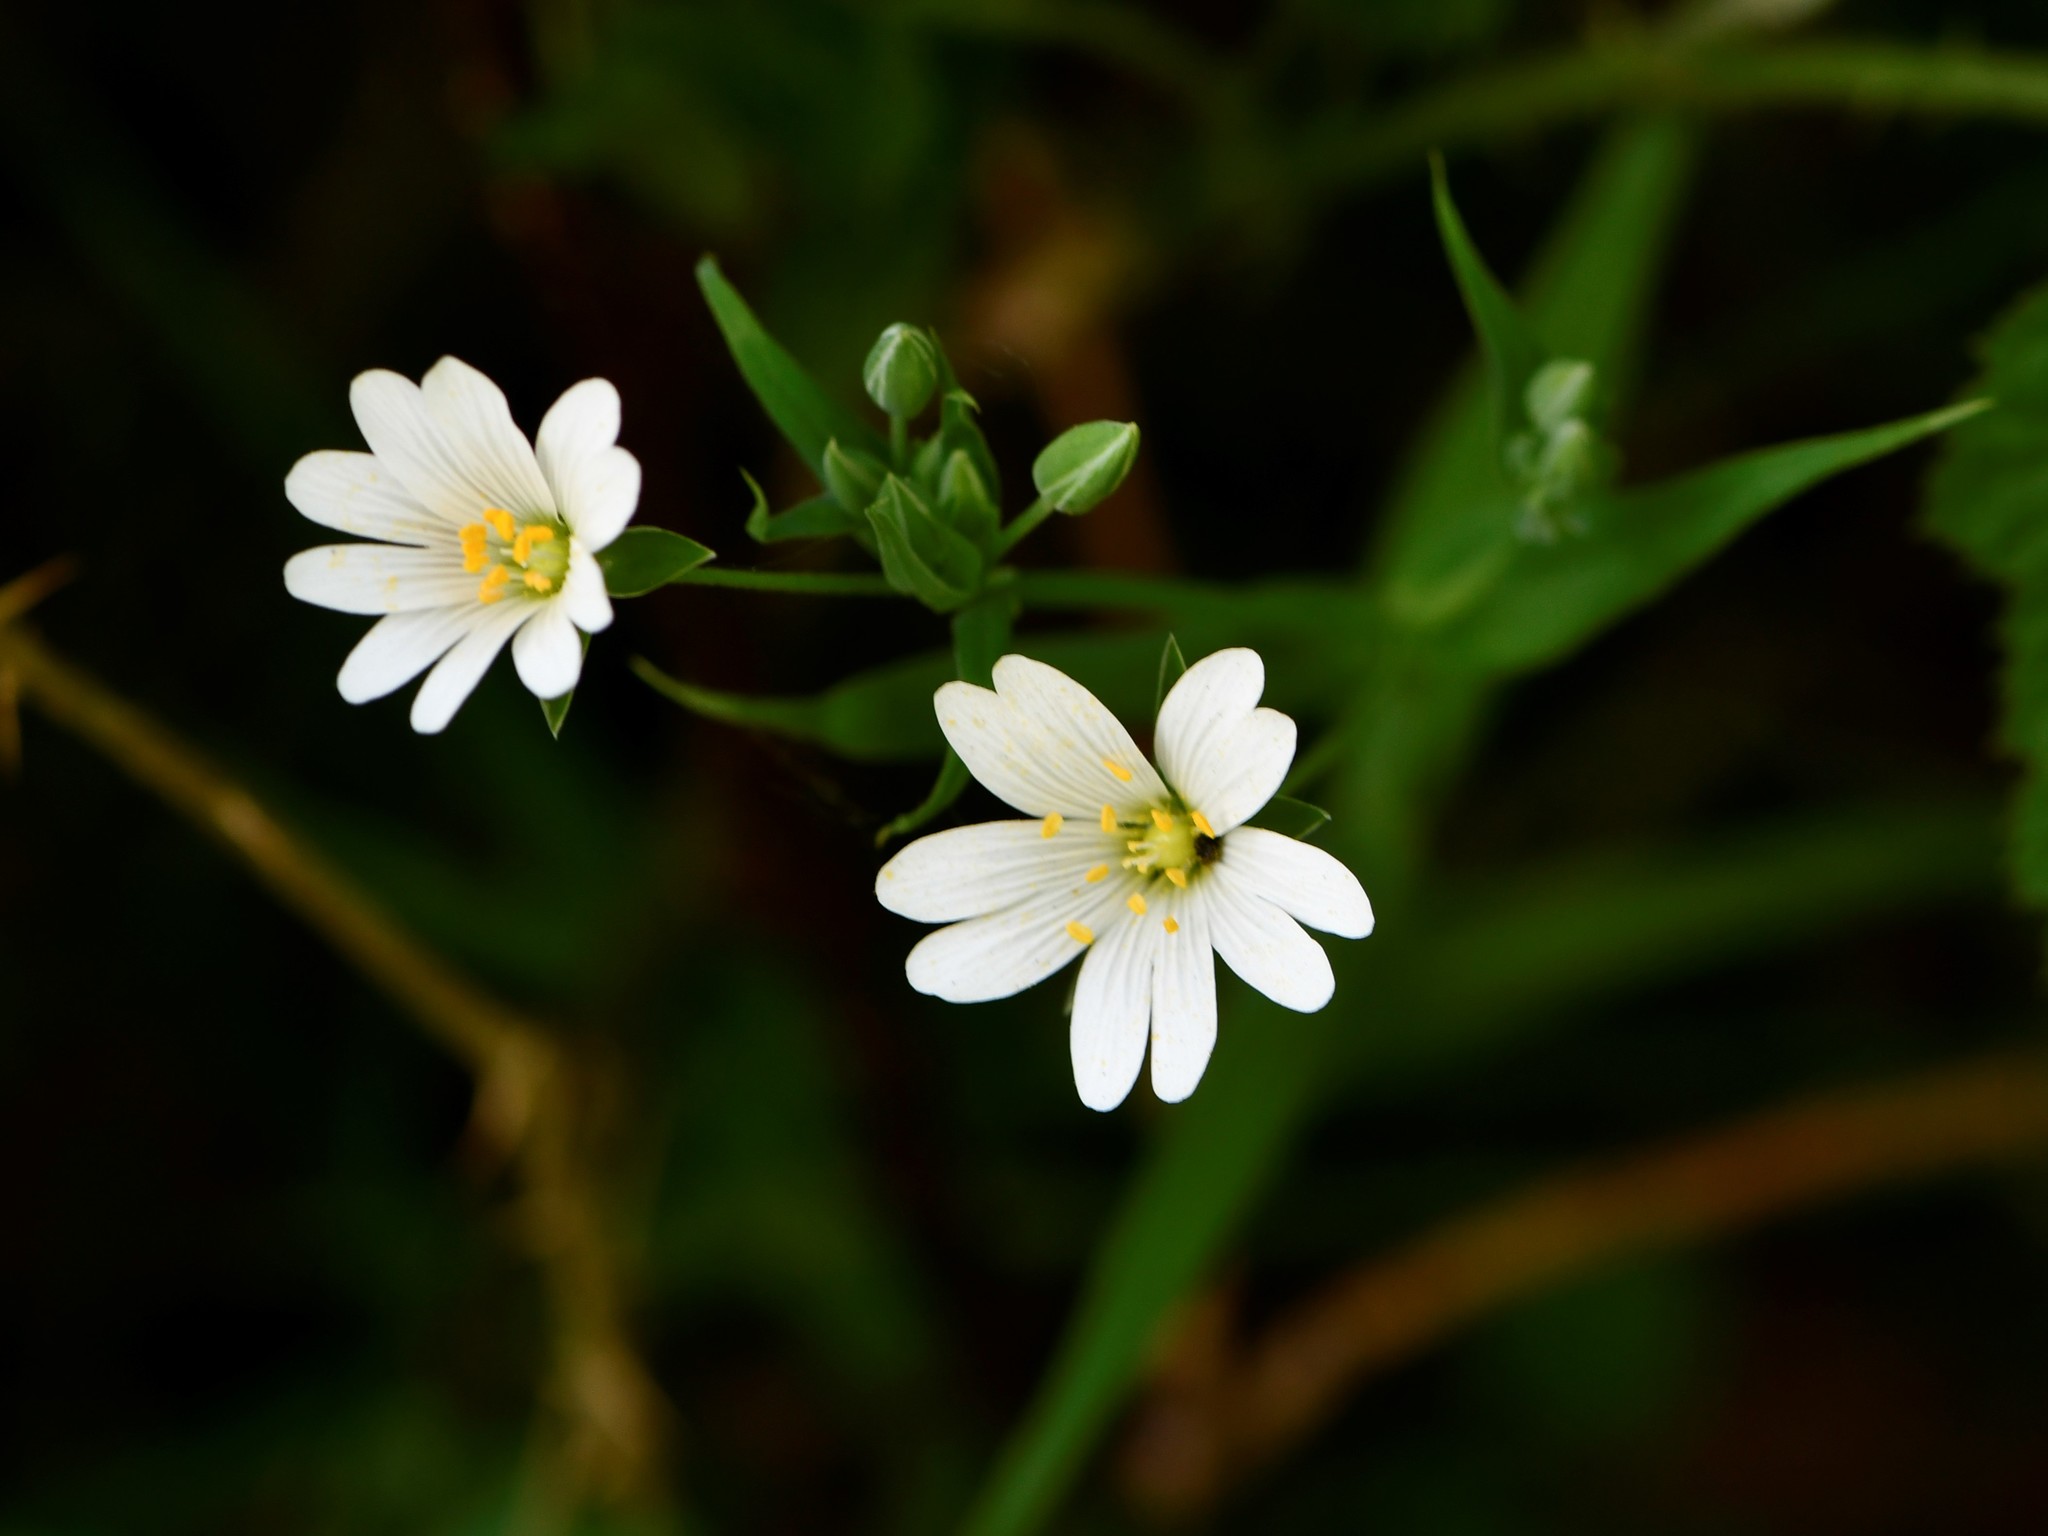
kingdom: Plantae
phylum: Tracheophyta
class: Magnoliopsida
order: Caryophyllales
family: Caryophyllaceae
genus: Rabelera
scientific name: Rabelera holostea
